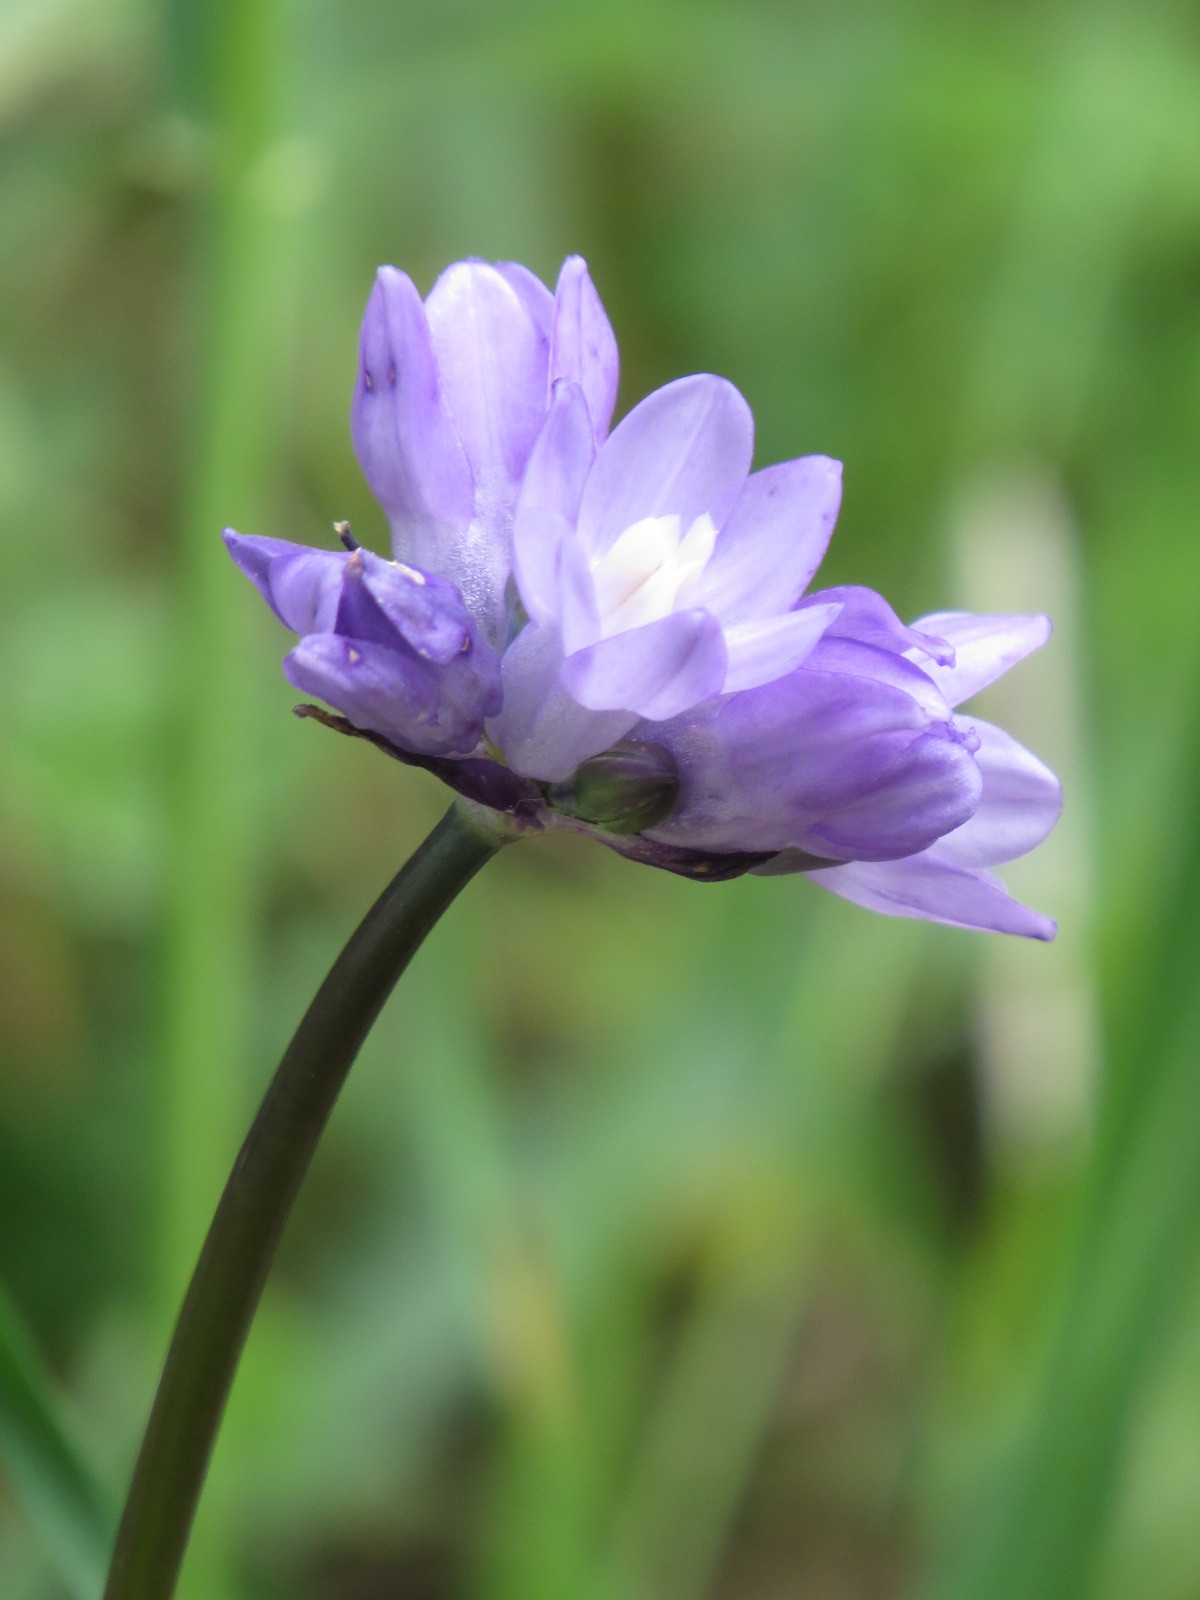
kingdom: Plantae
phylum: Tracheophyta
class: Liliopsida
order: Asparagales
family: Asparagaceae
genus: Dipterostemon
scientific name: Dipterostemon capitatus
